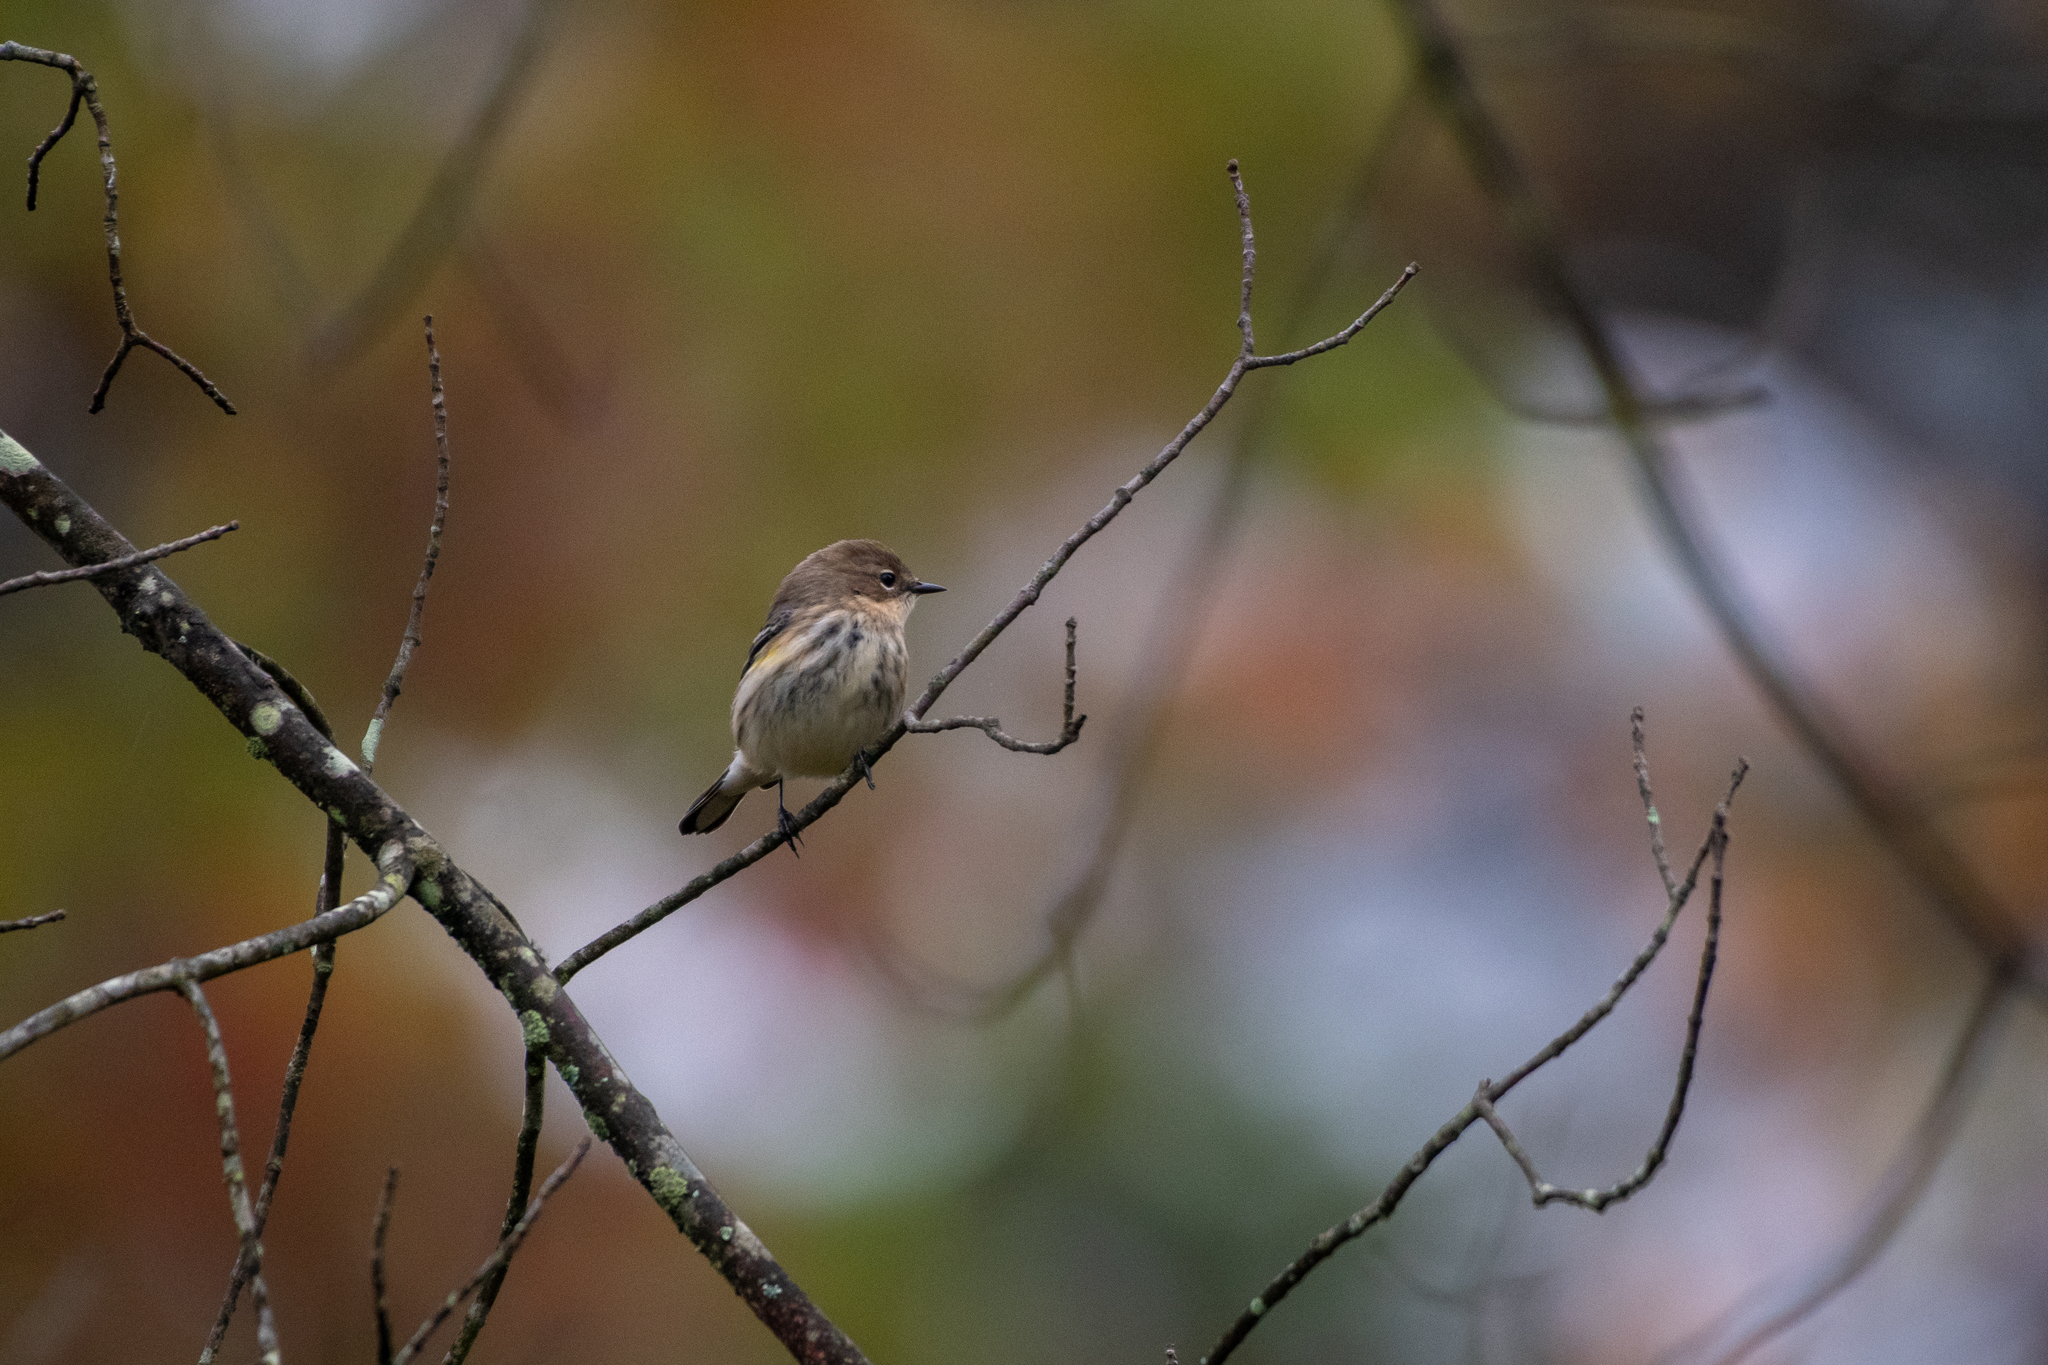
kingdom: Animalia
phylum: Chordata
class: Aves
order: Passeriformes
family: Parulidae
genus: Setophaga
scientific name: Setophaga coronata
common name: Myrtle warbler
